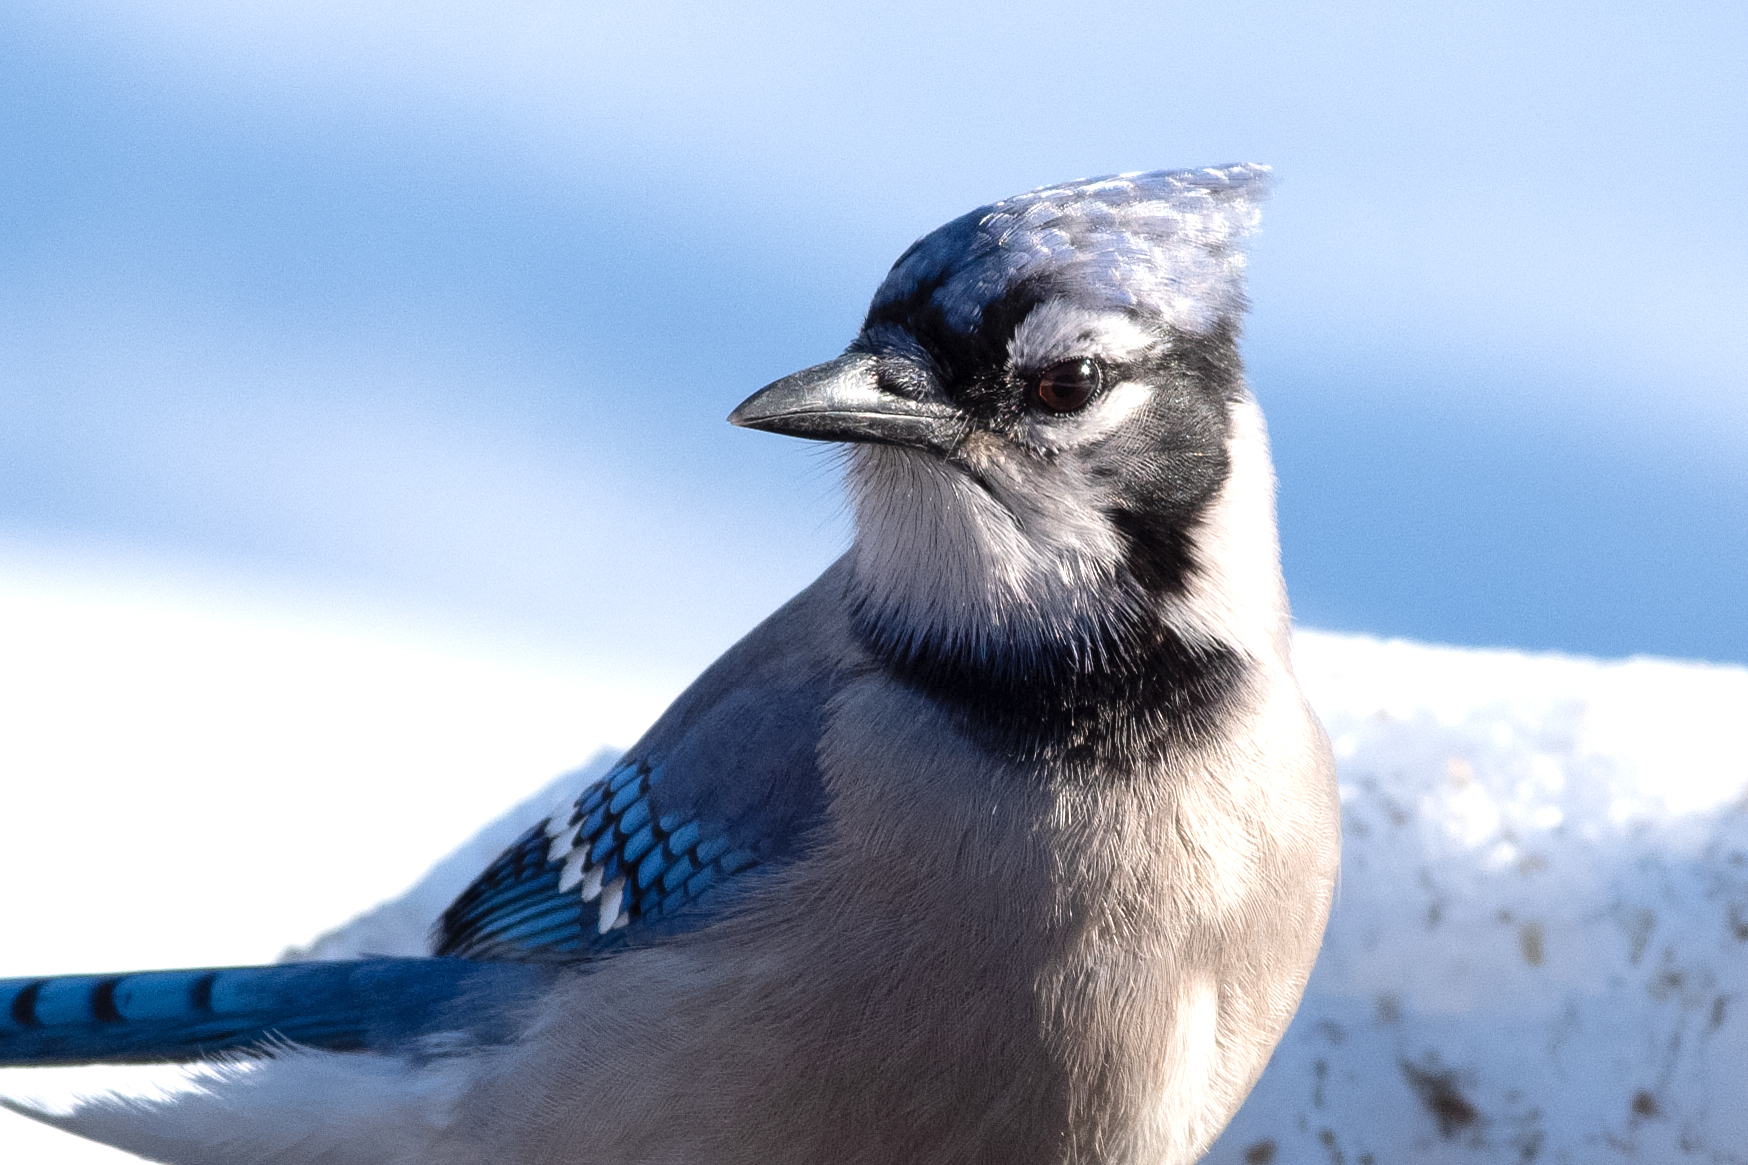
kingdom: Animalia
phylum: Chordata
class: Aves
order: Passeriformes
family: Corvidae
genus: Cyanocitta
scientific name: Cyanocitta cristata
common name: Blue jay
